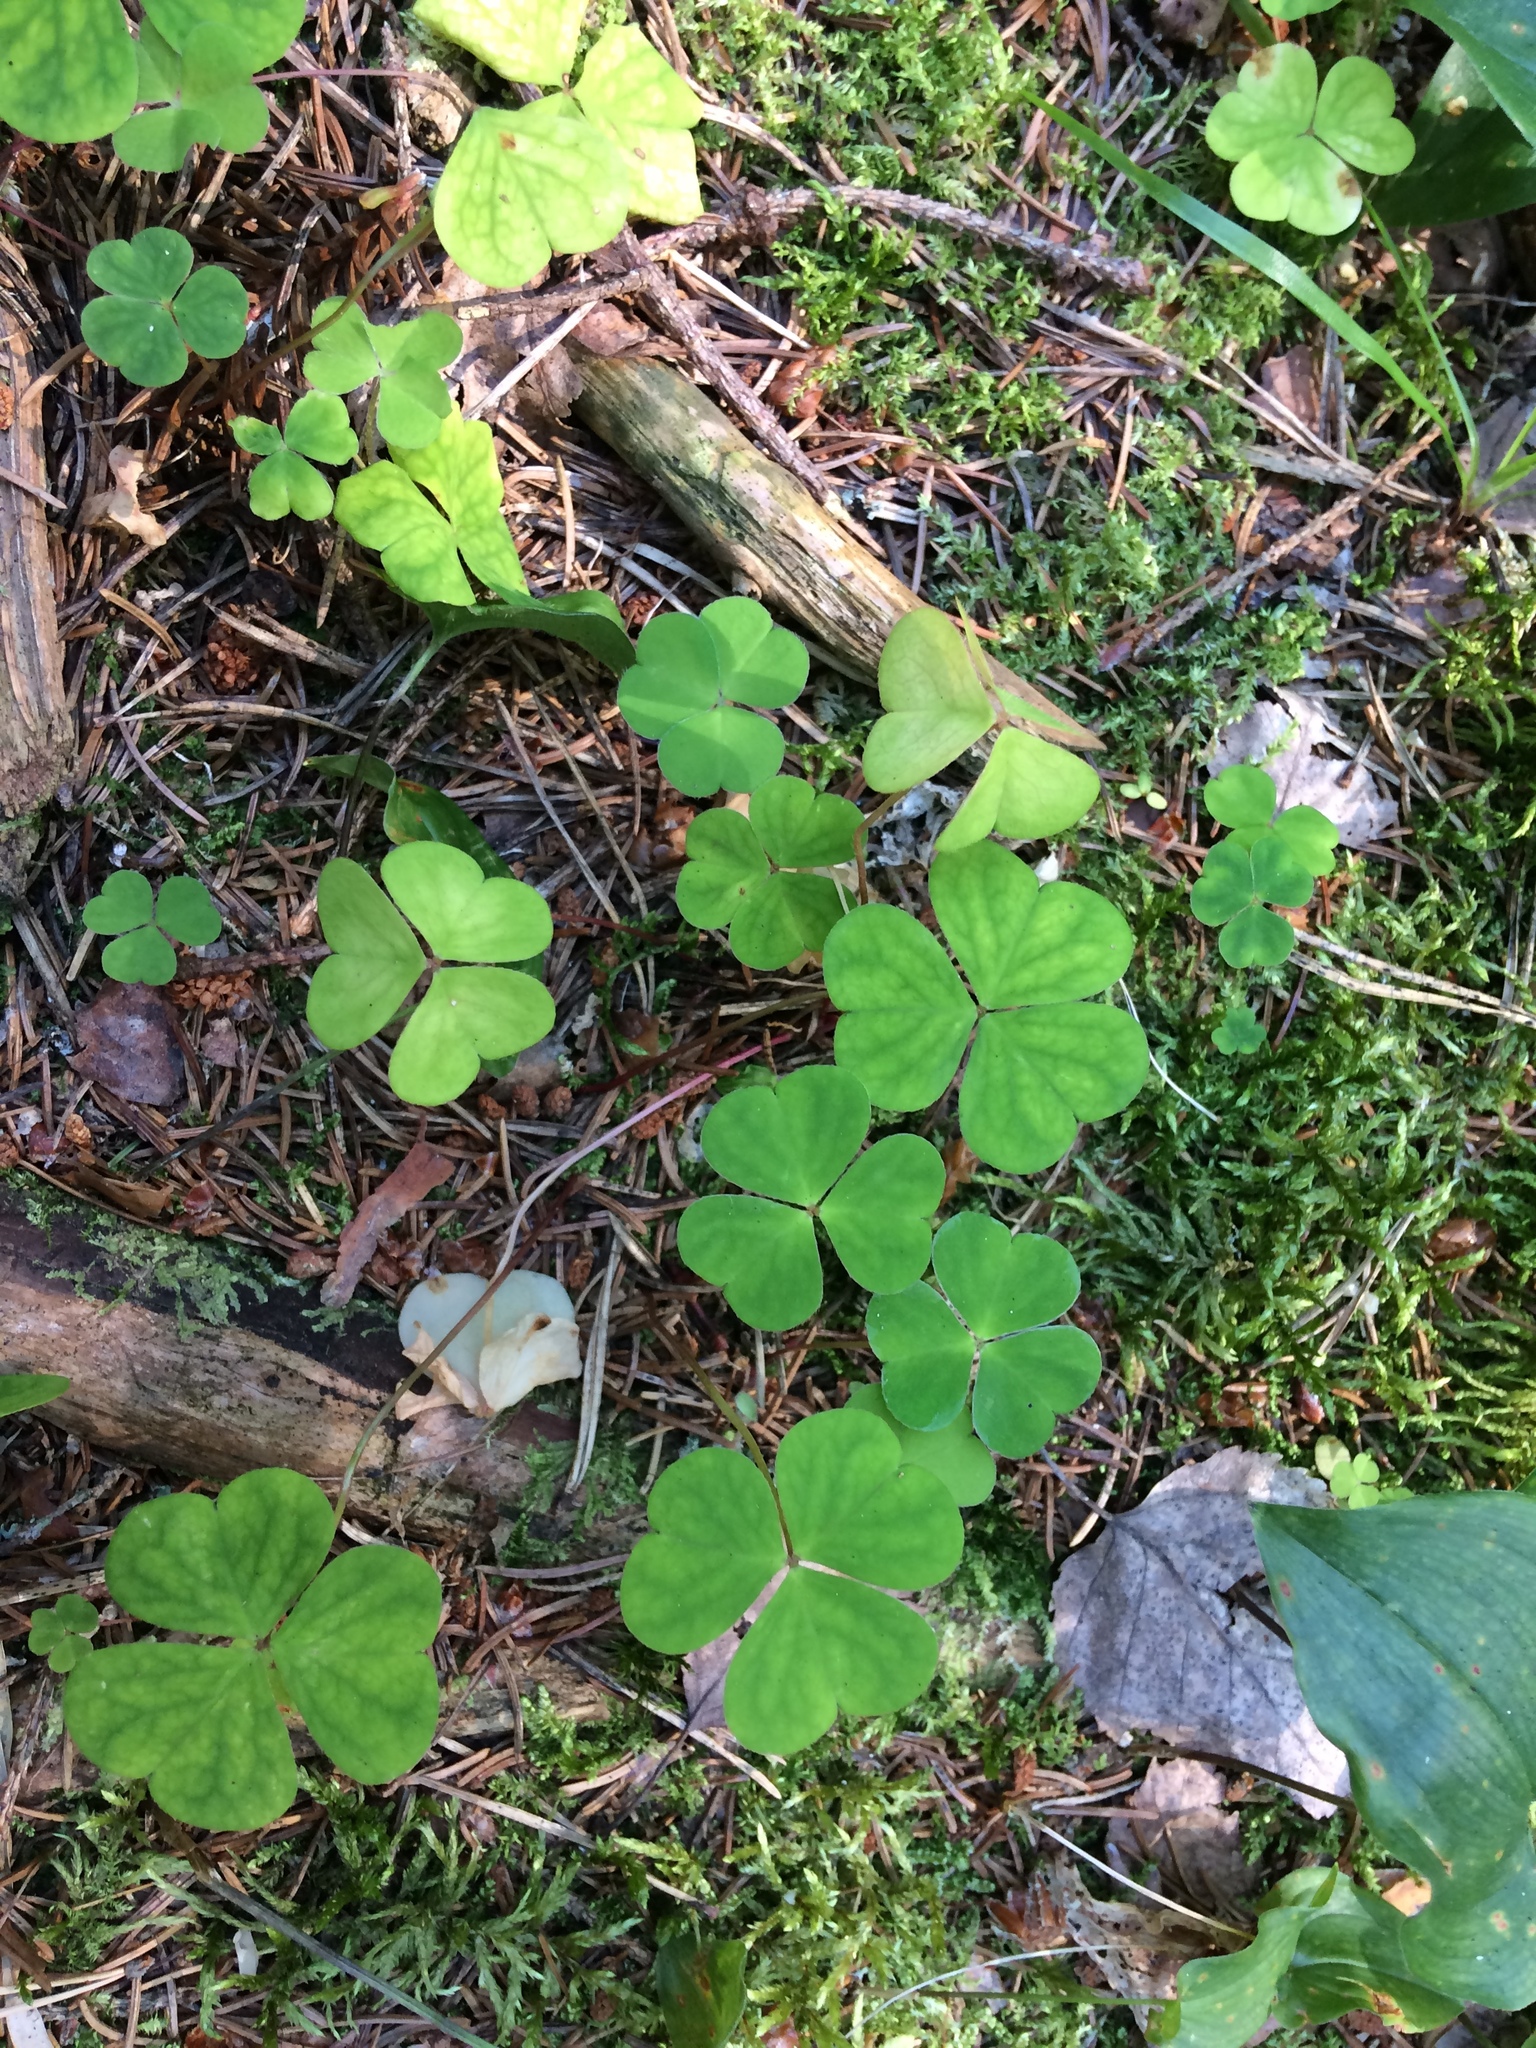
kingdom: Plantae
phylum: Tracheophyta
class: Magnoliopsida
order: Oxalidales
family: Oxalidaceae
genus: Oxalis
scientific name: Oxalis acetosella
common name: Wood-sorrel
